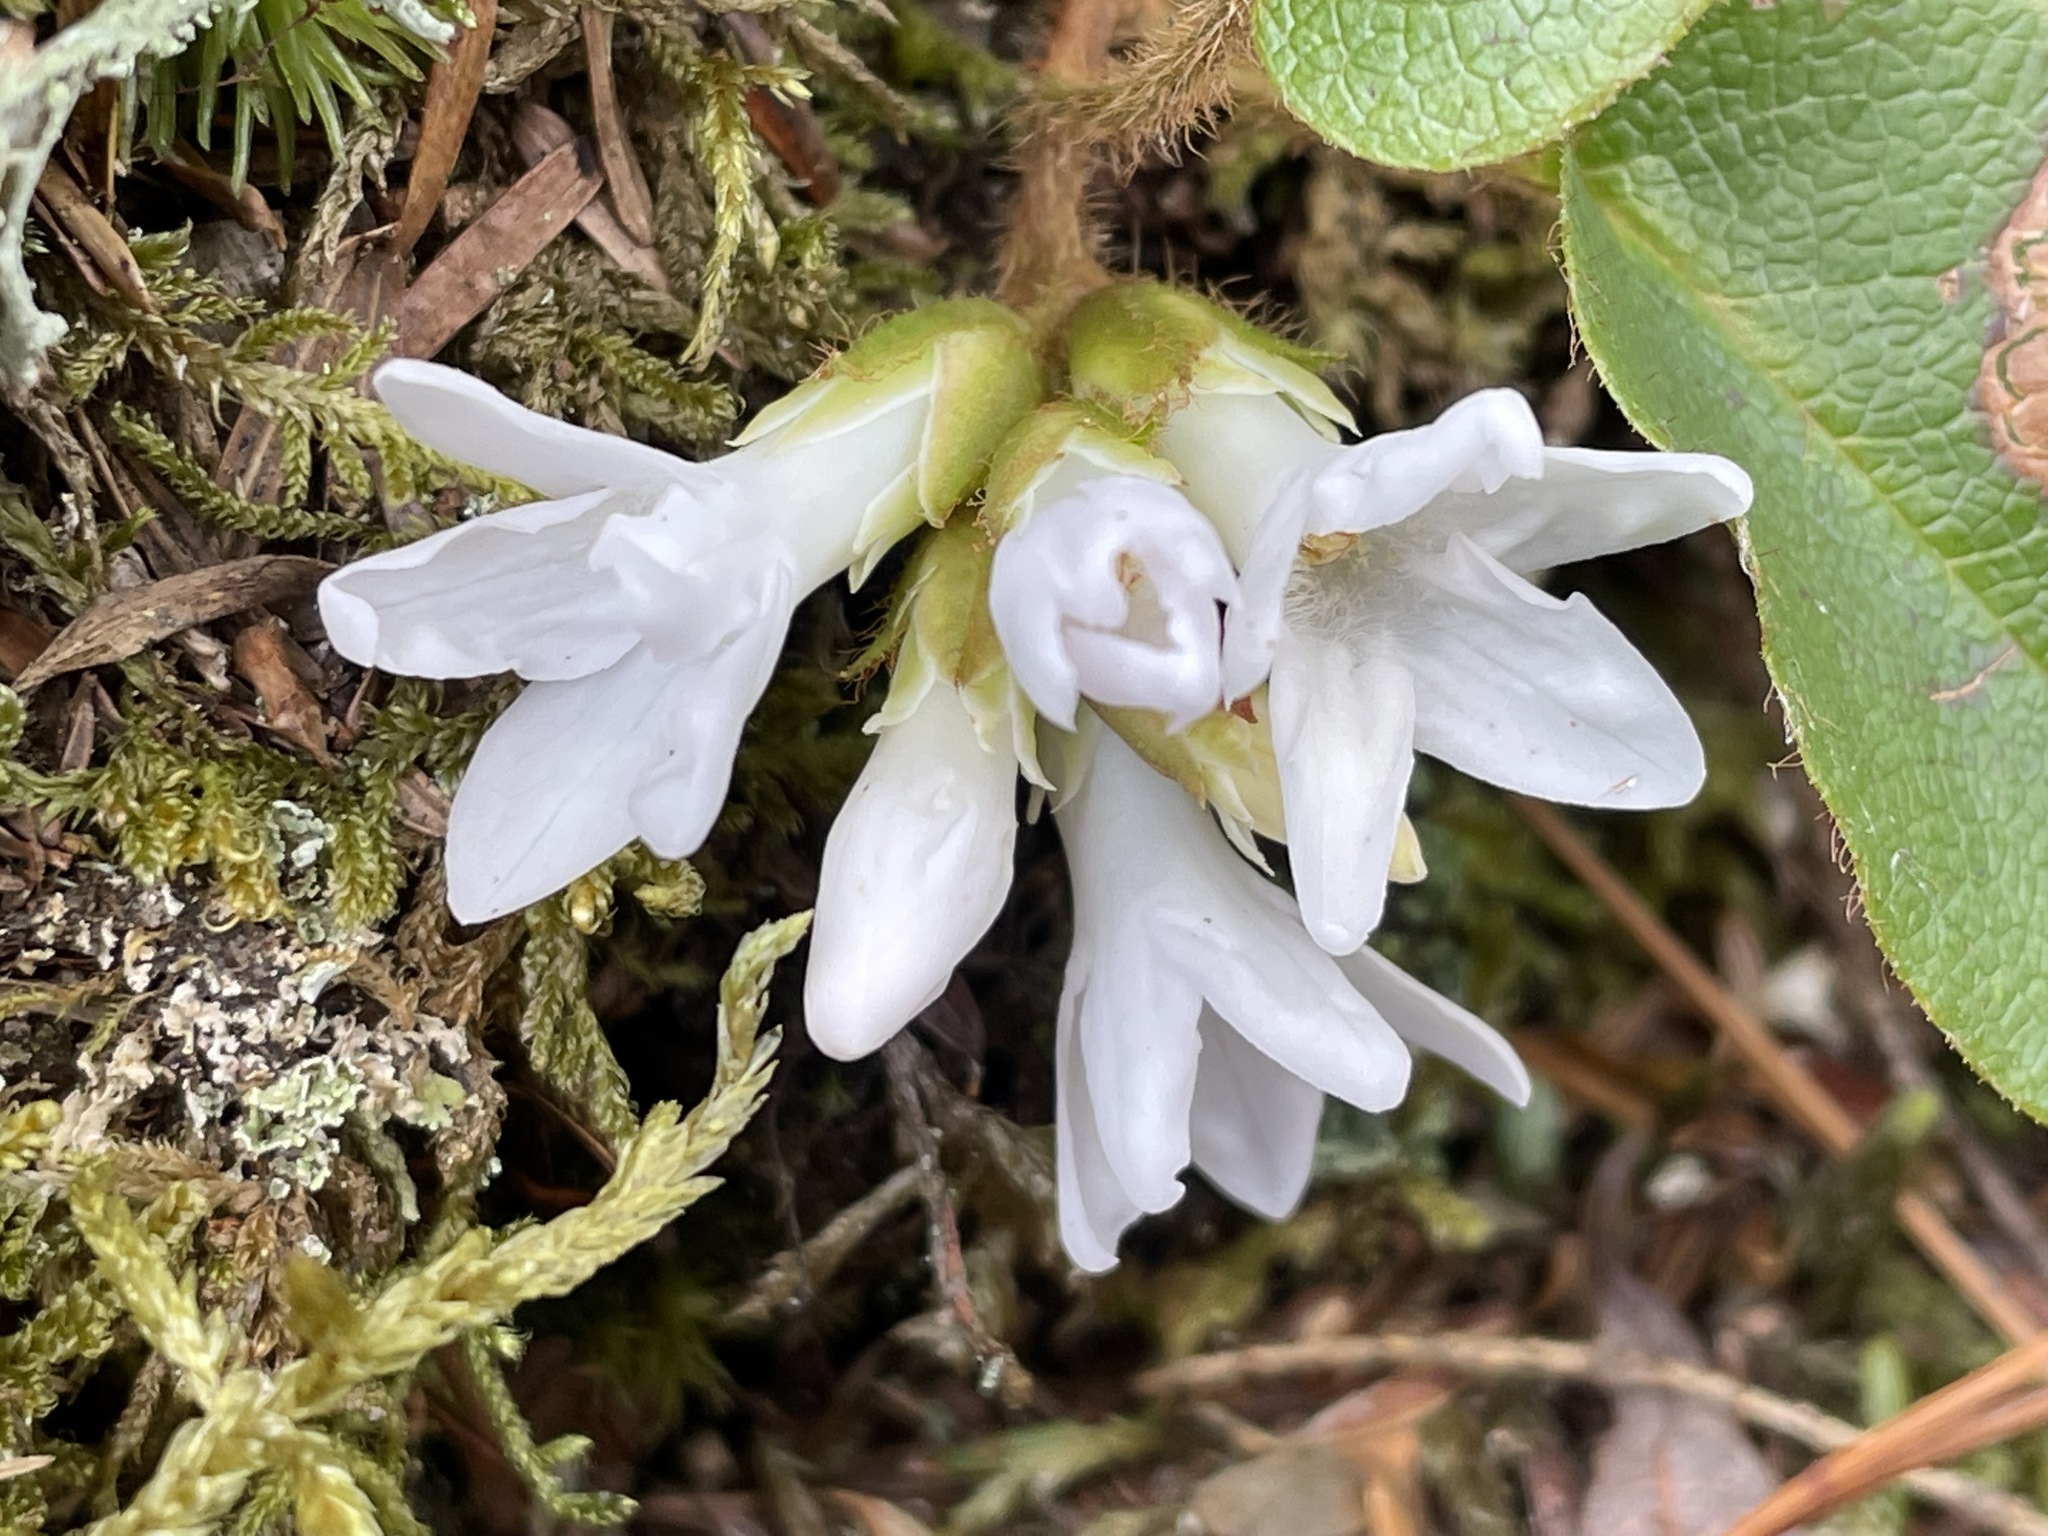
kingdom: Plantae
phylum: Tracheophyta
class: Magnoliopsida
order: Ericales
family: Ericaceae
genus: Epigaea
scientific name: Epigaea repens
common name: Gravelroot
